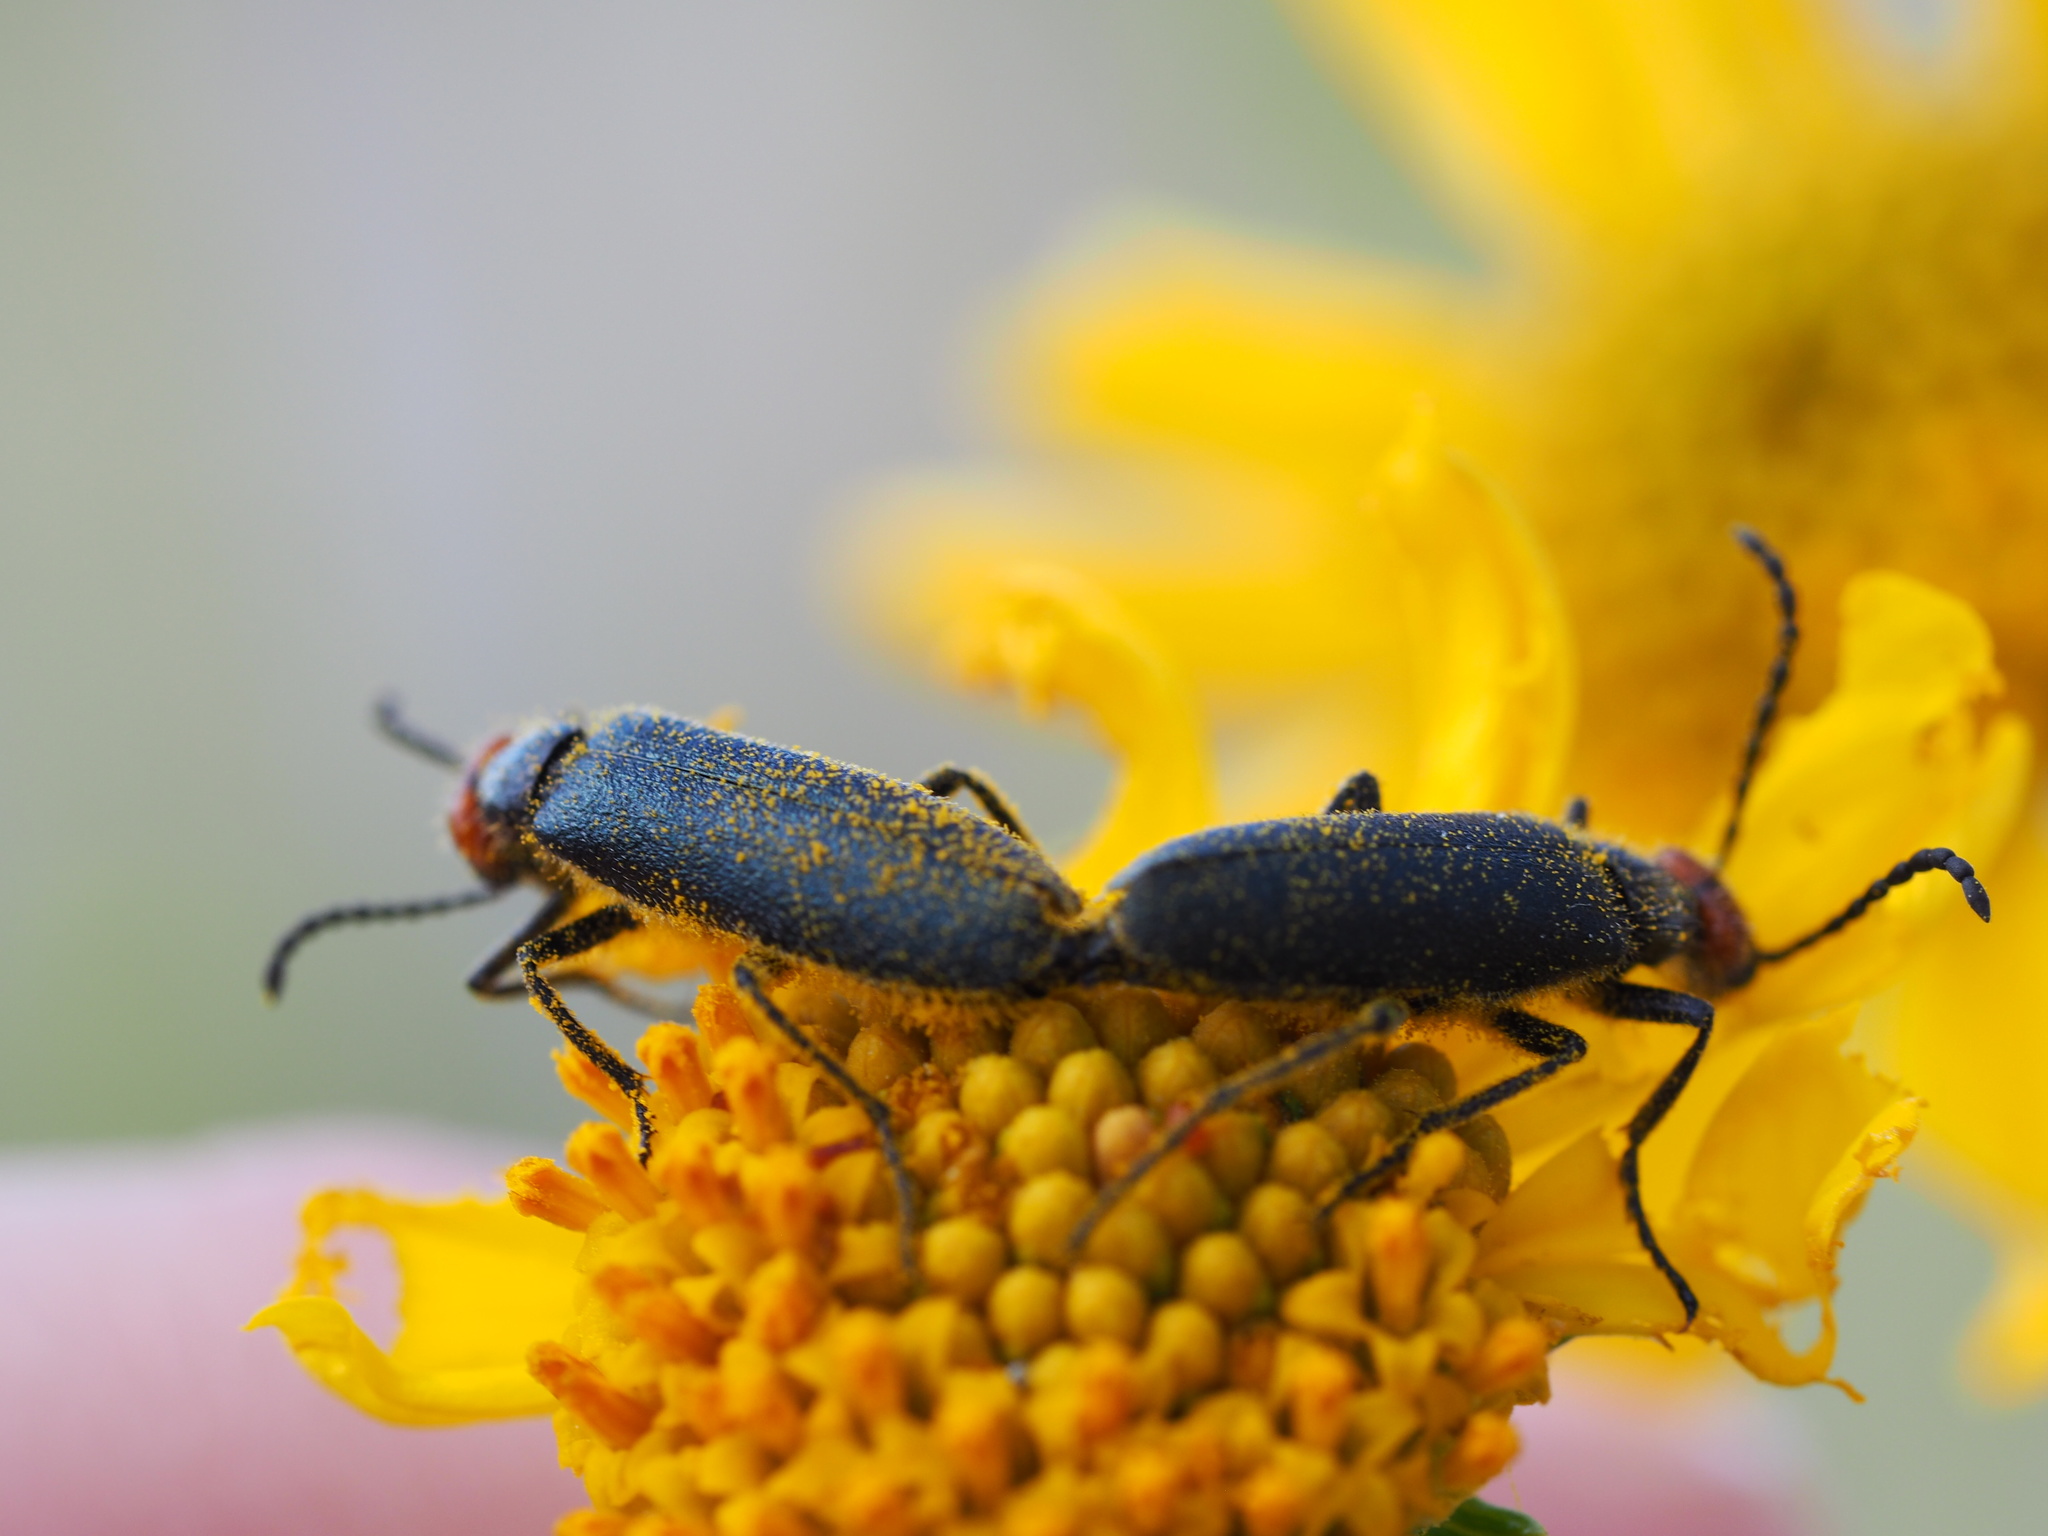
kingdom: Animalia
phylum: Arthropoda
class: Insecta
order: Coleoptera
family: Meloidae
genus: Lytta
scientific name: Lytta auriculata
